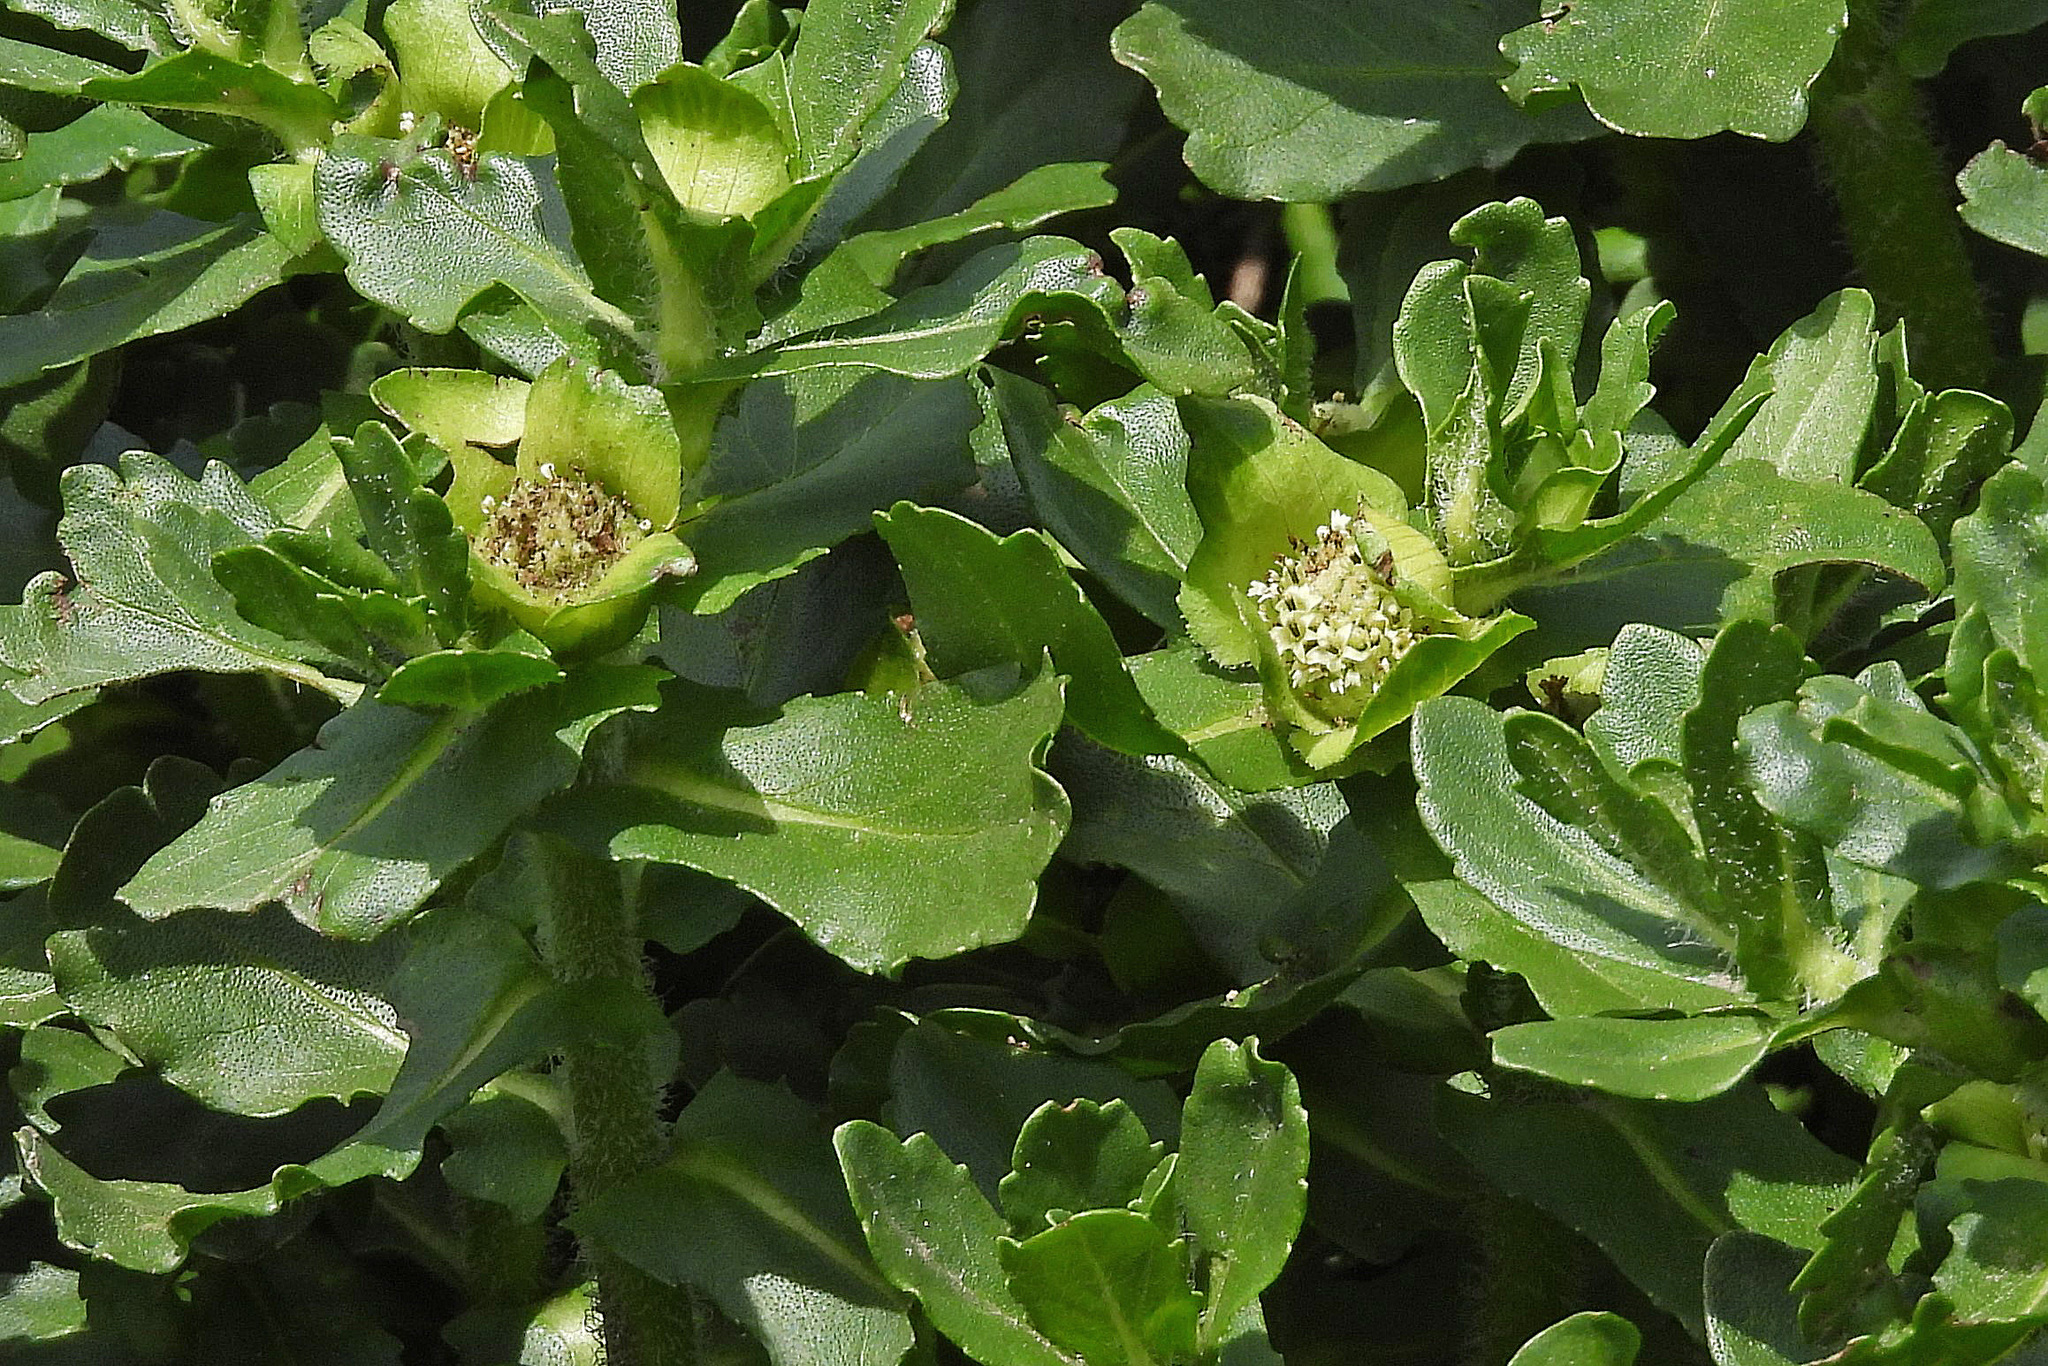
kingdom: Plantae
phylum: Tracheophyta
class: Magnoliopsida
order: Asterales
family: Asteraceae
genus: Enydra
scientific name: Enydra fluctuans
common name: Buffalo spinach
